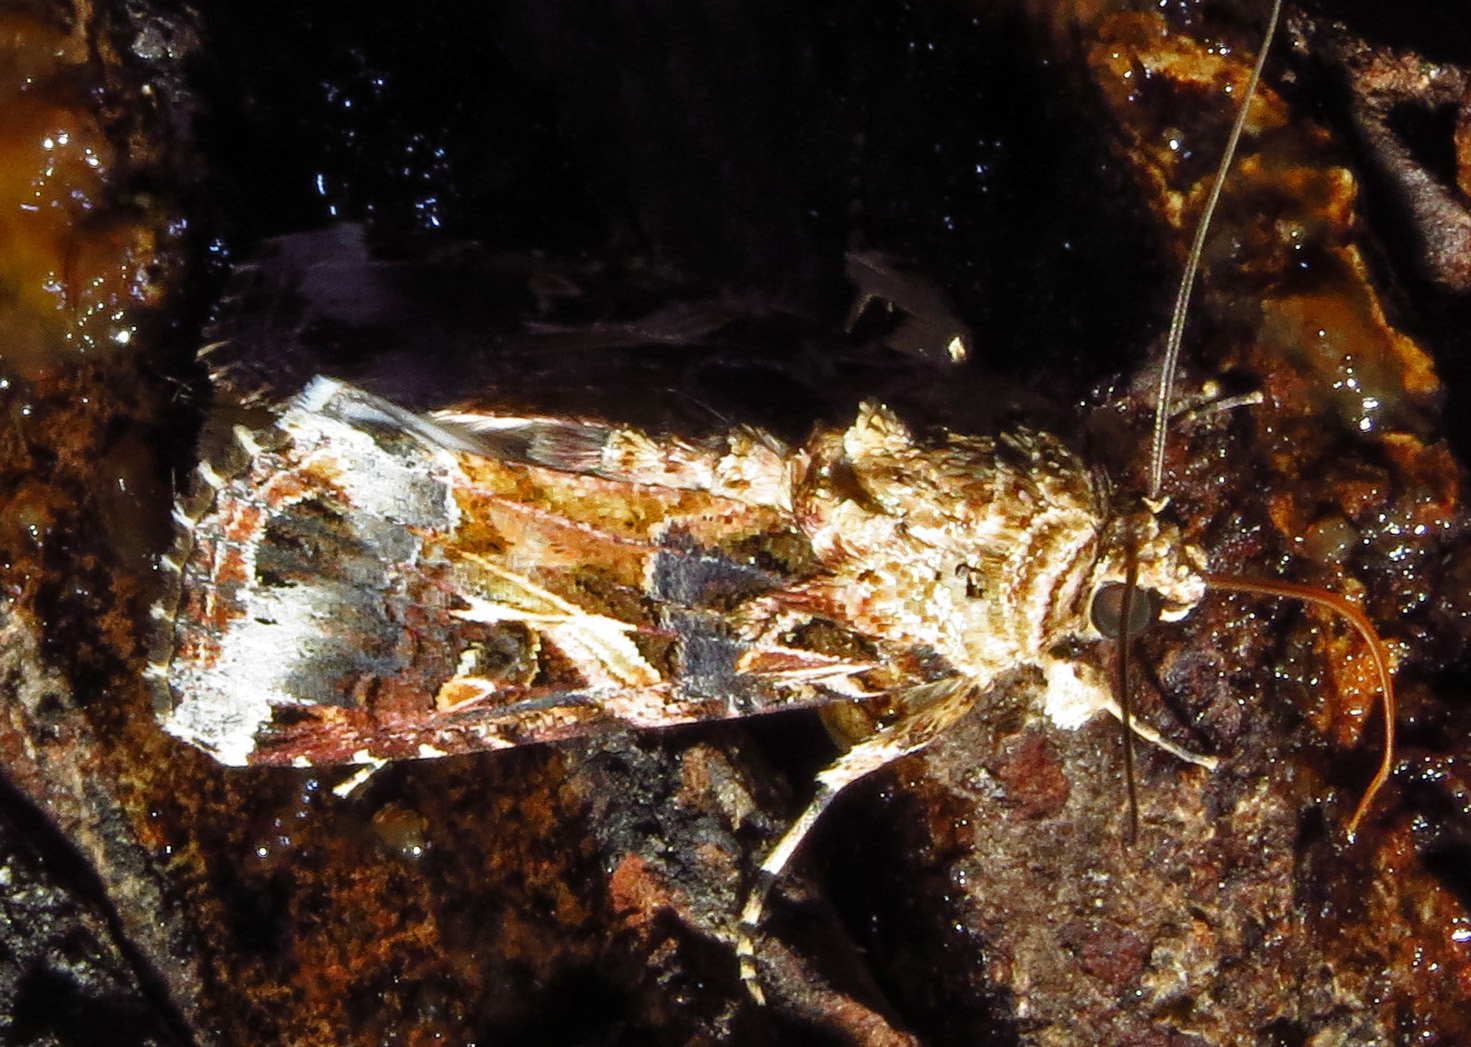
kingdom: Animalia
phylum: Arthropoda
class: Insecta
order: Lepidoptera
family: Noctuidae
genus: Spodoptera
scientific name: Spodoptera ornithogalli
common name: Yellow-striped armyworm
